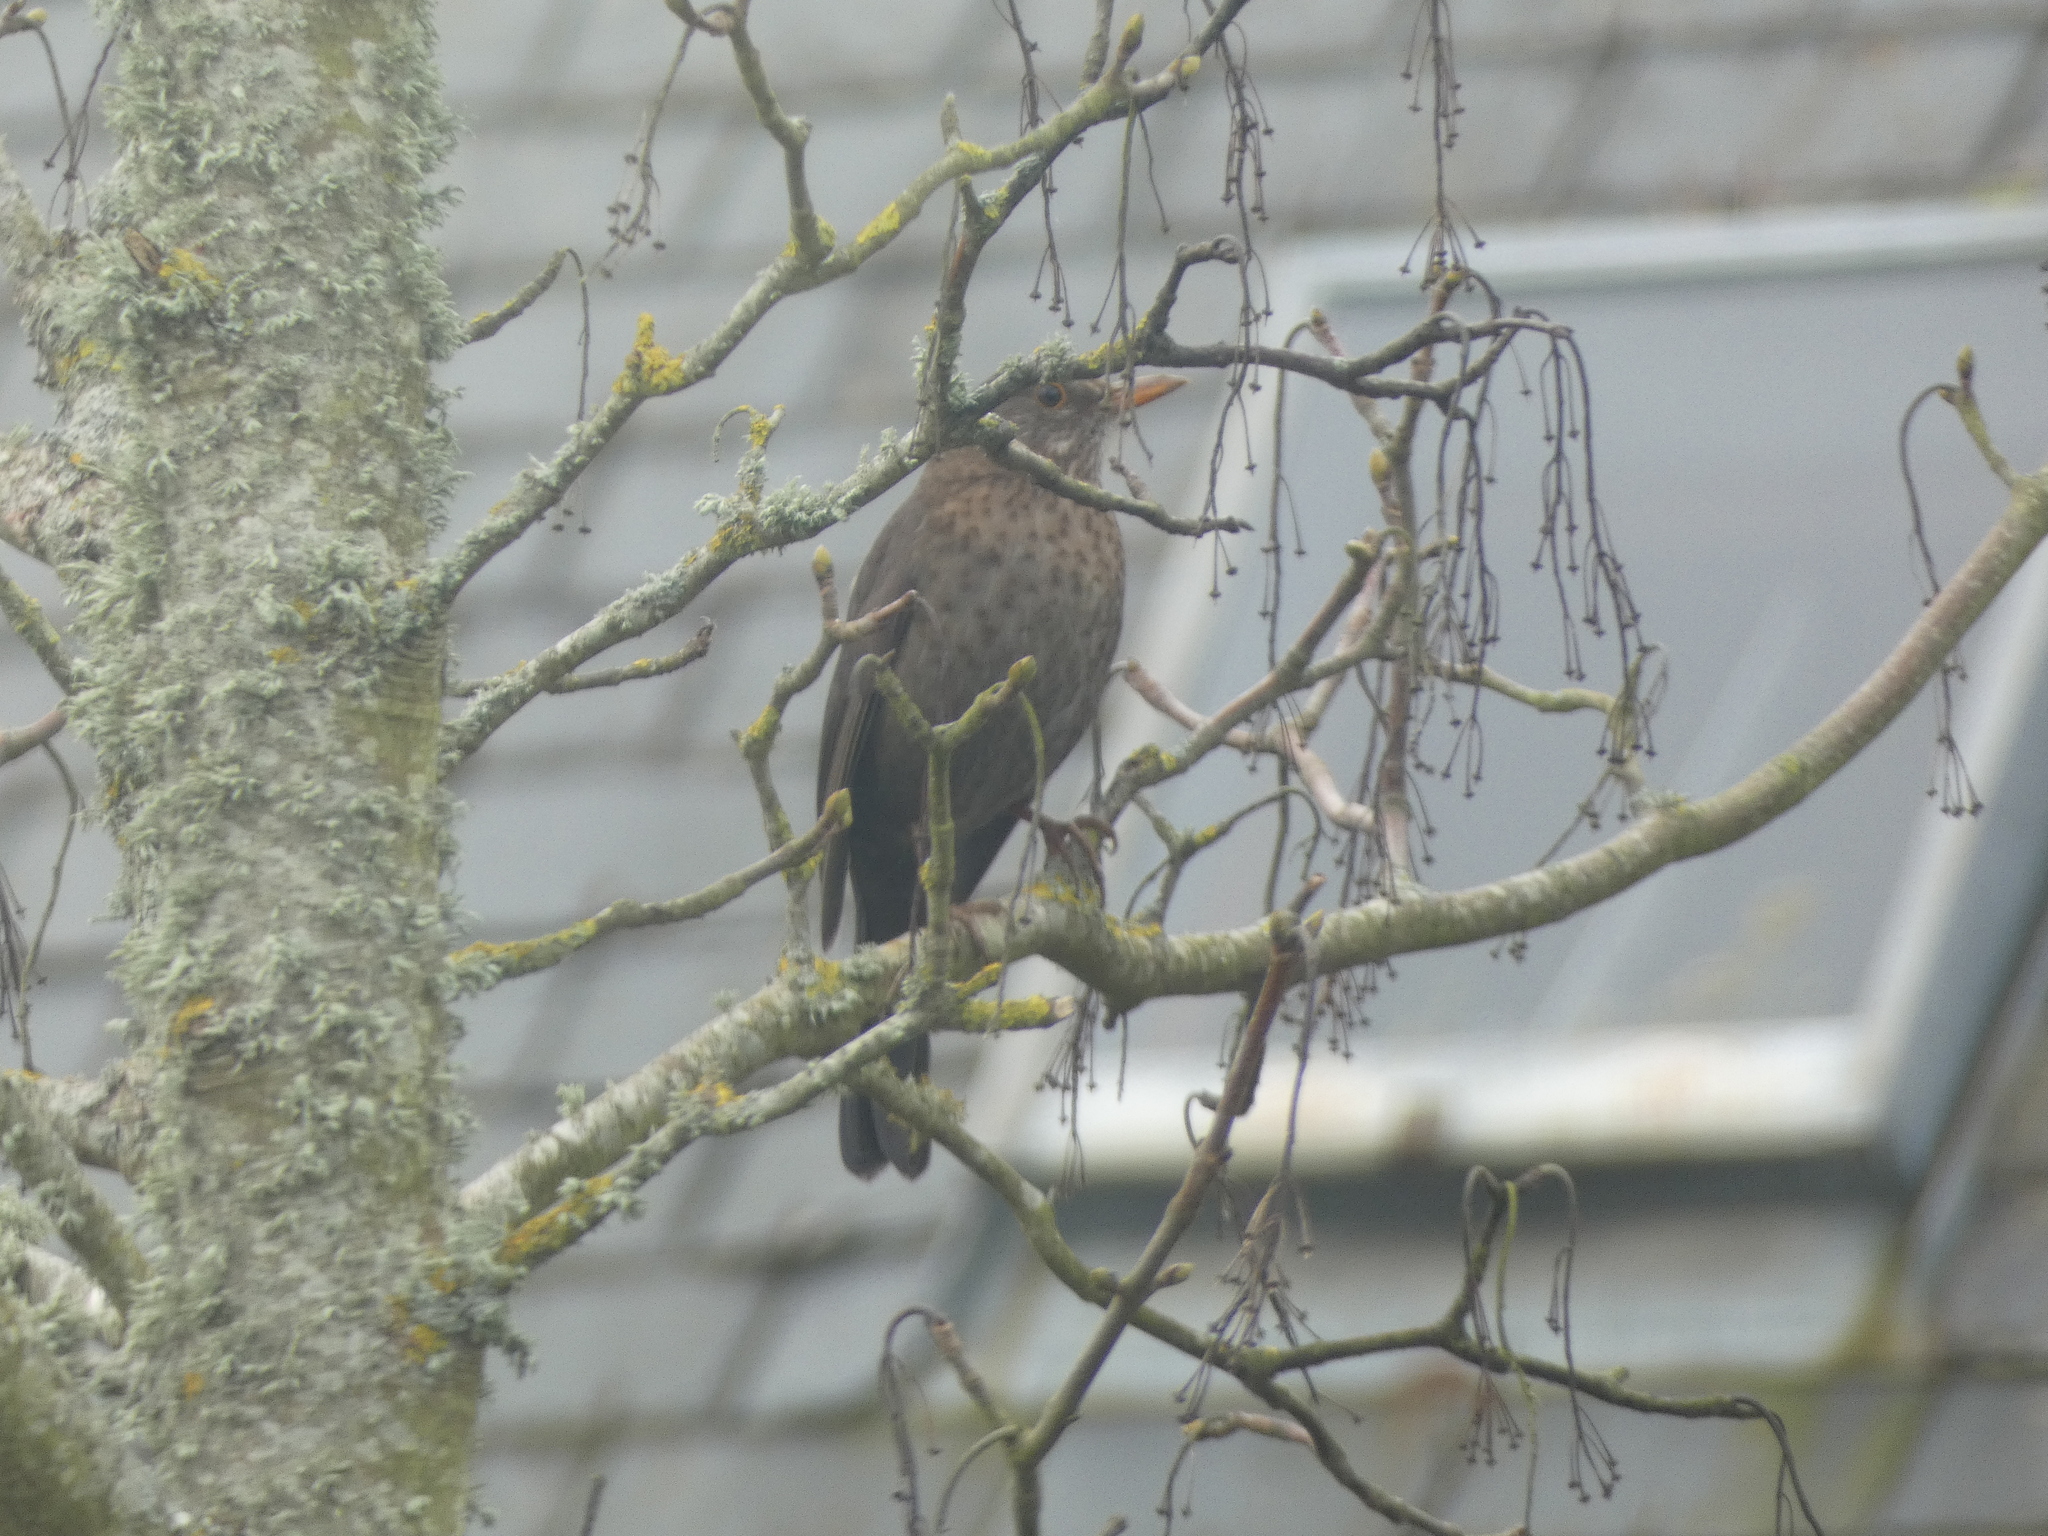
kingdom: Animalia
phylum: Chordata
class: Aves
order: Passeriformes
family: Turdidae
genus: Turdus
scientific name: Turdus merula
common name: Common blackbird
